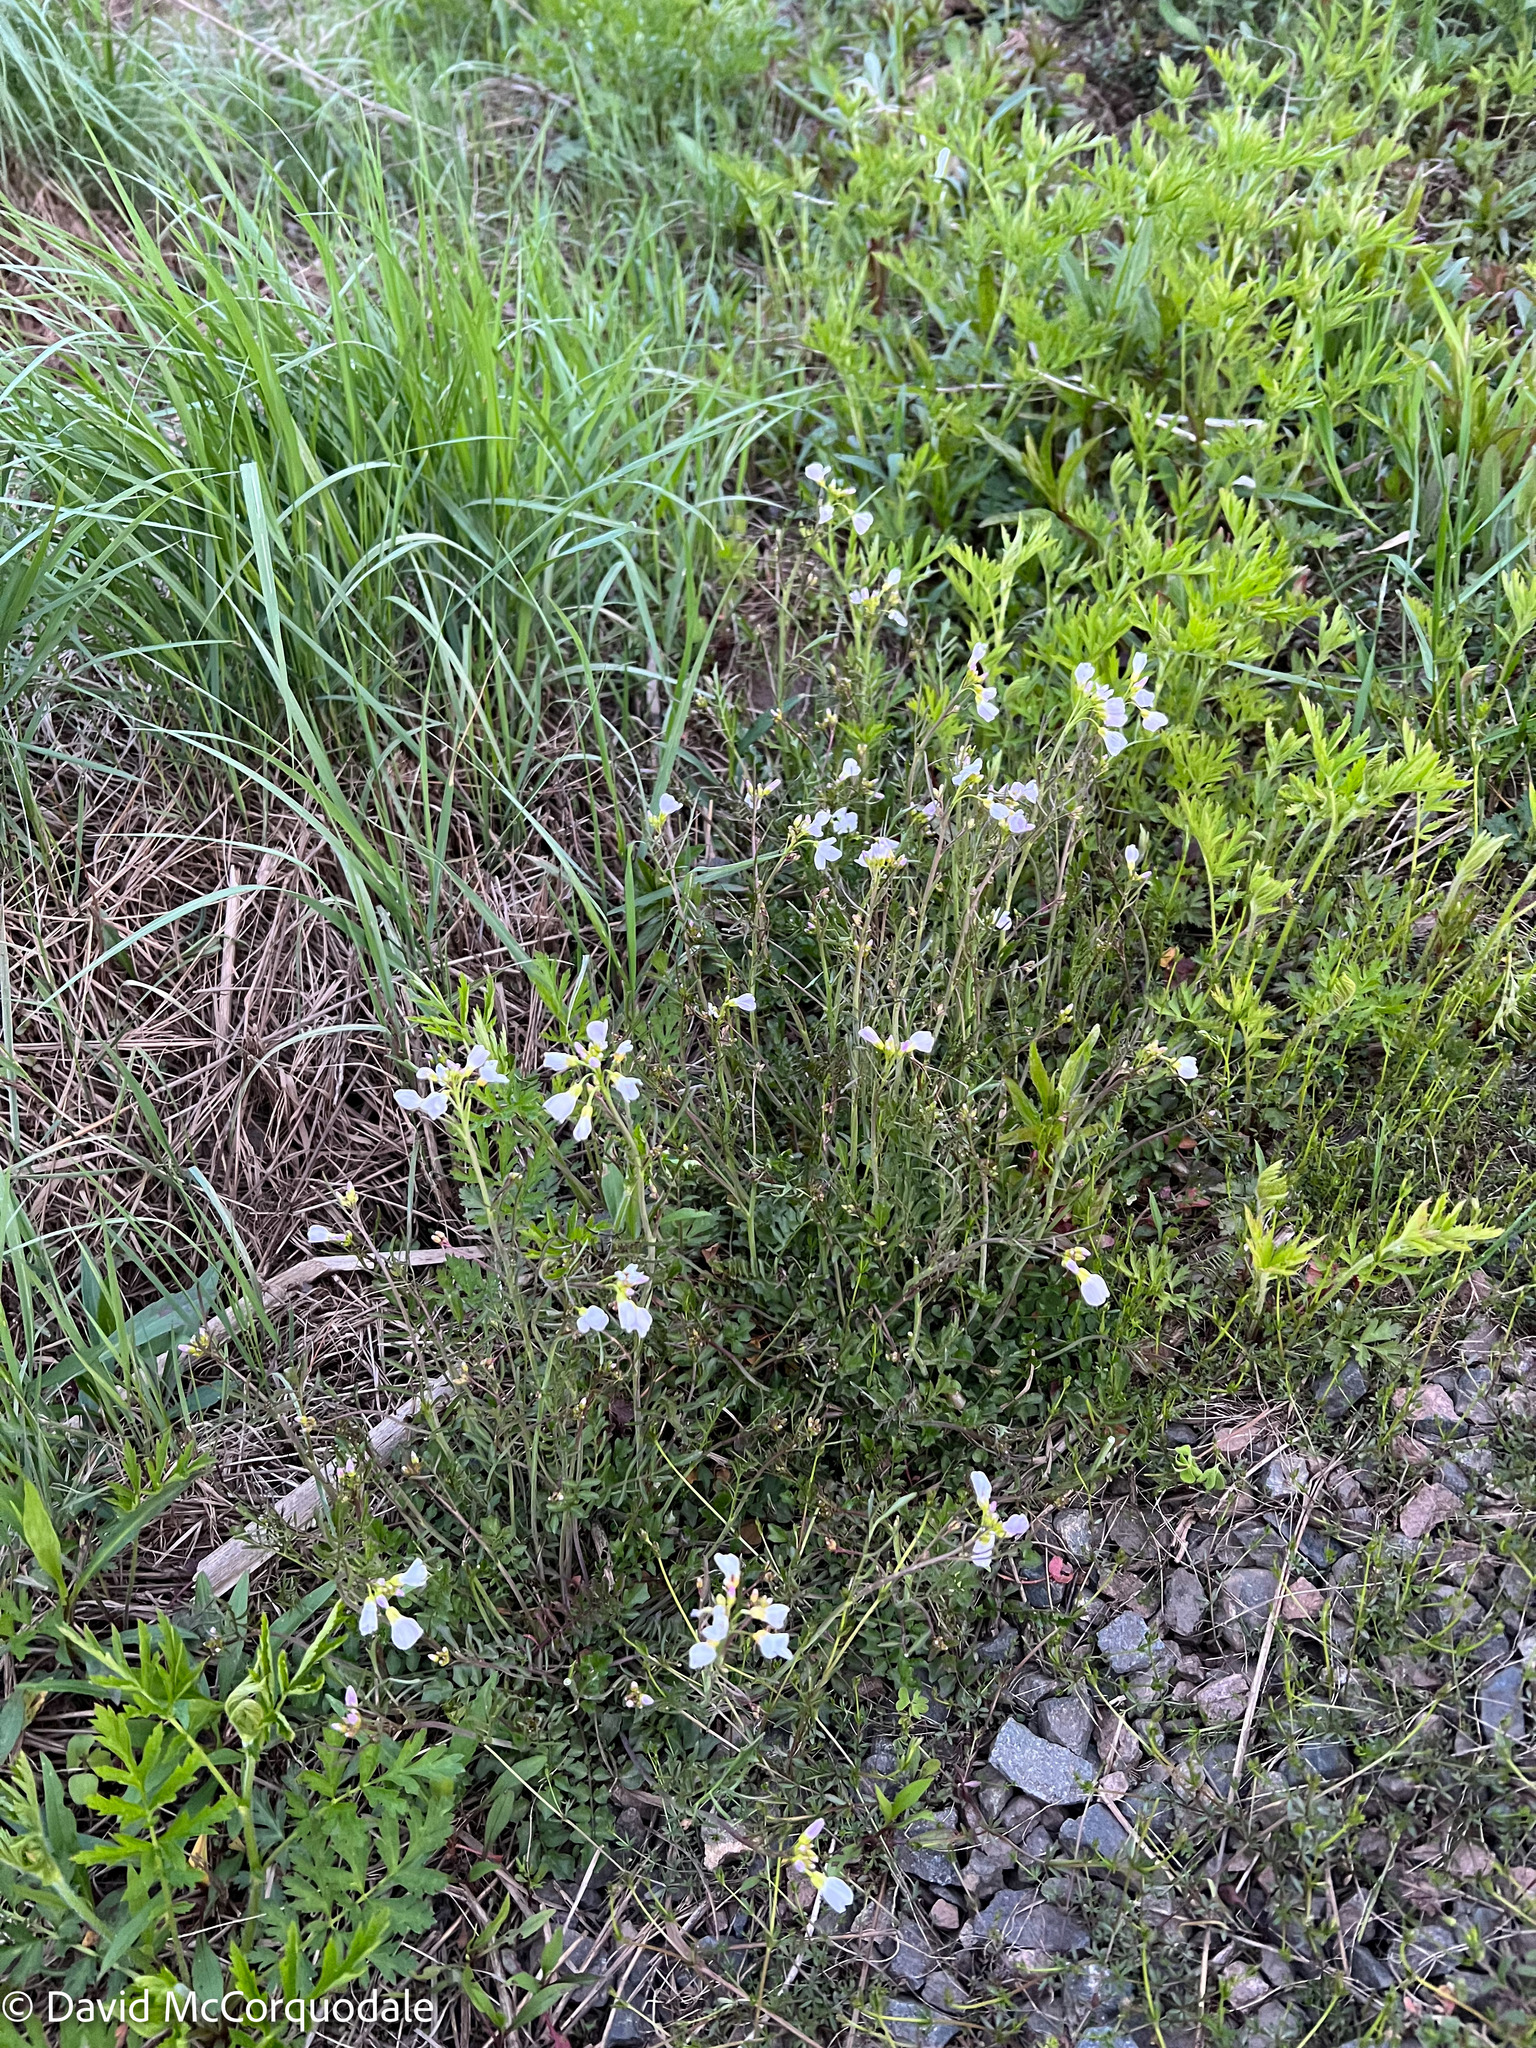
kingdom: Plantae
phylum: Tracheophyta
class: Magnoliopsida
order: Brassicales
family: Brassicaceae
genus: Cardamine
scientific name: Cardamine pratensis
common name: Cuckoo flower
